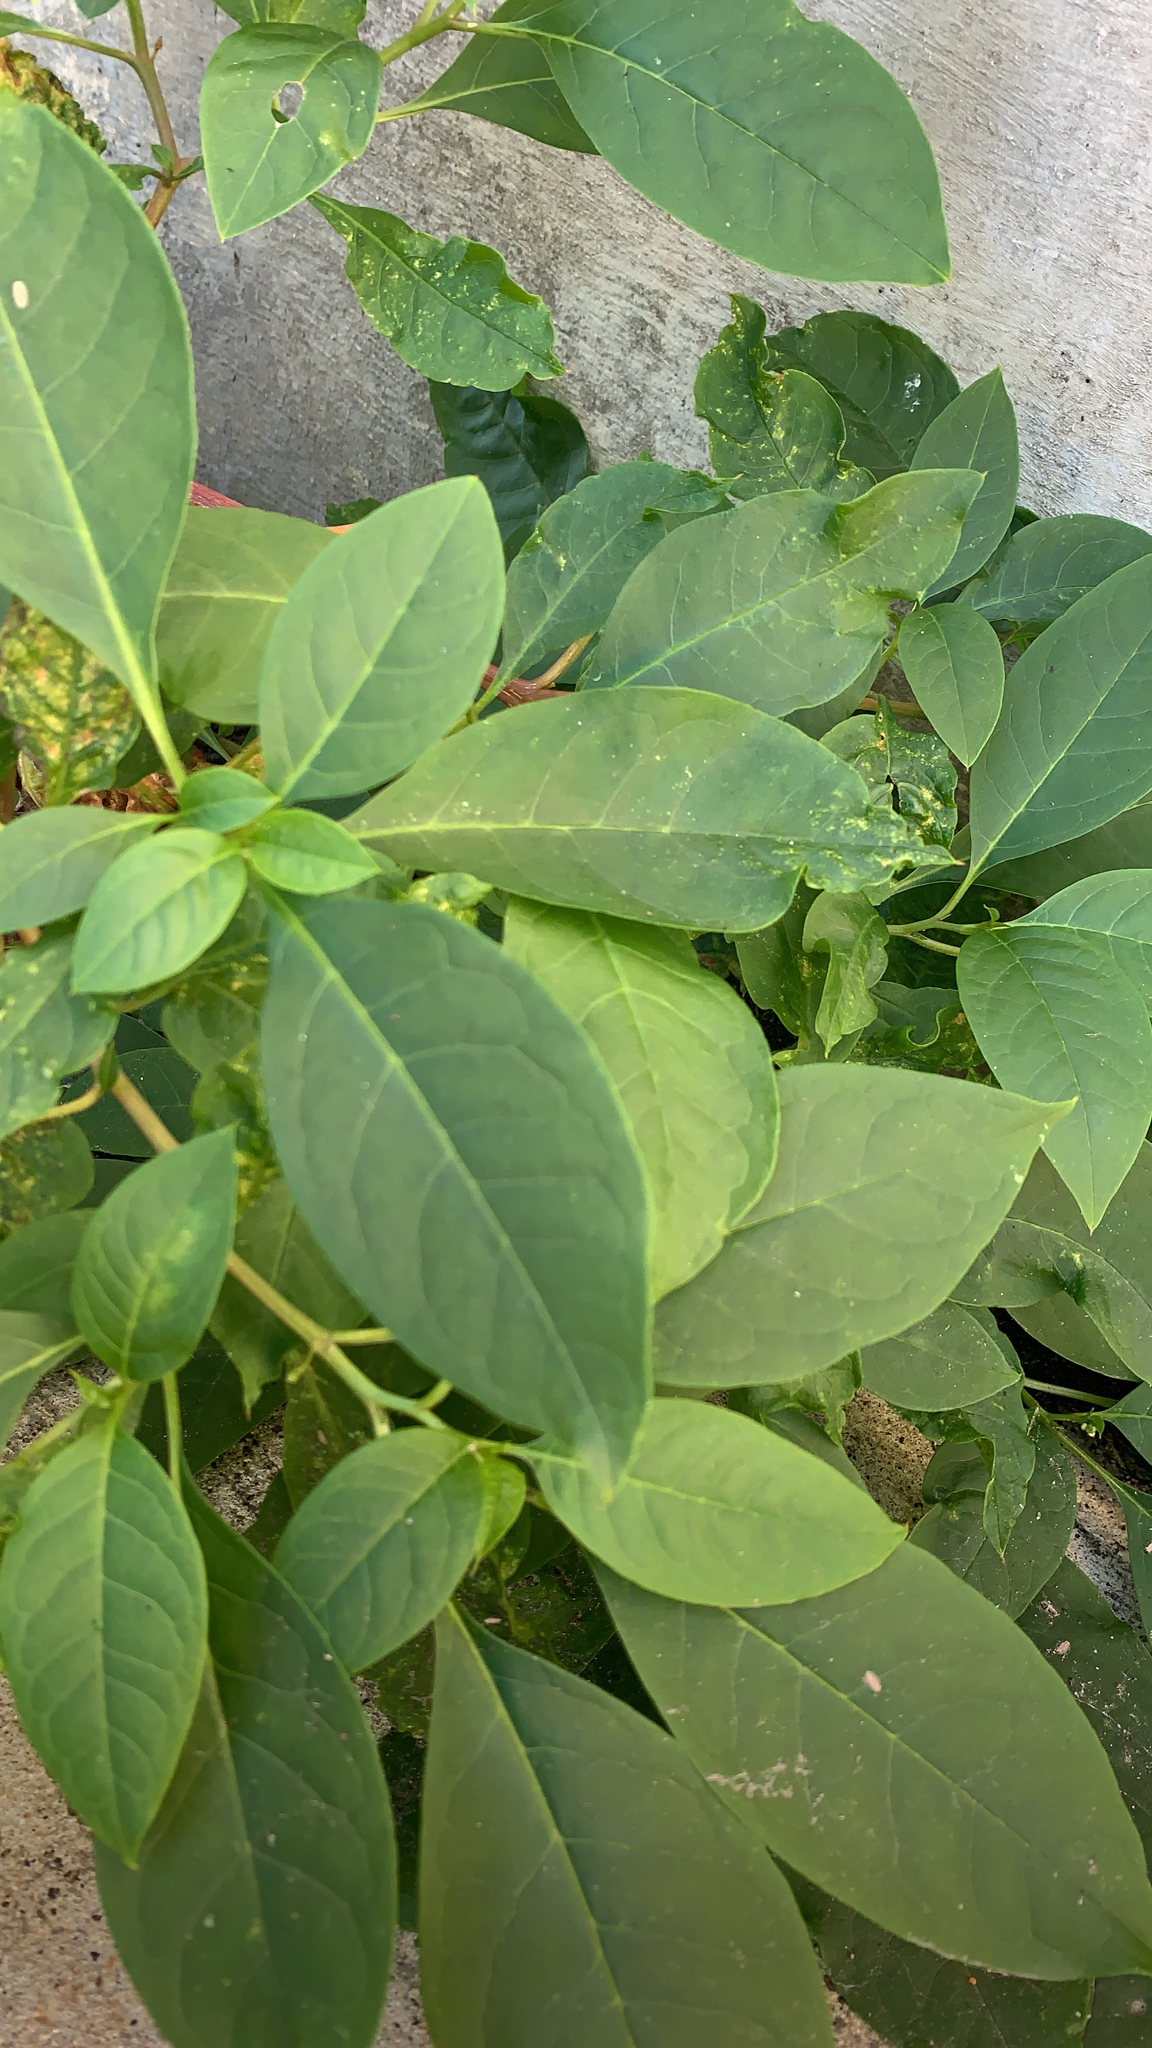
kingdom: Plantae
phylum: Tracheophyta
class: Magnoliopsida
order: Caryophyllales
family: Phytolaccaceae
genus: Phytolacca
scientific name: Phytolacca americana
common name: American pokeweed
